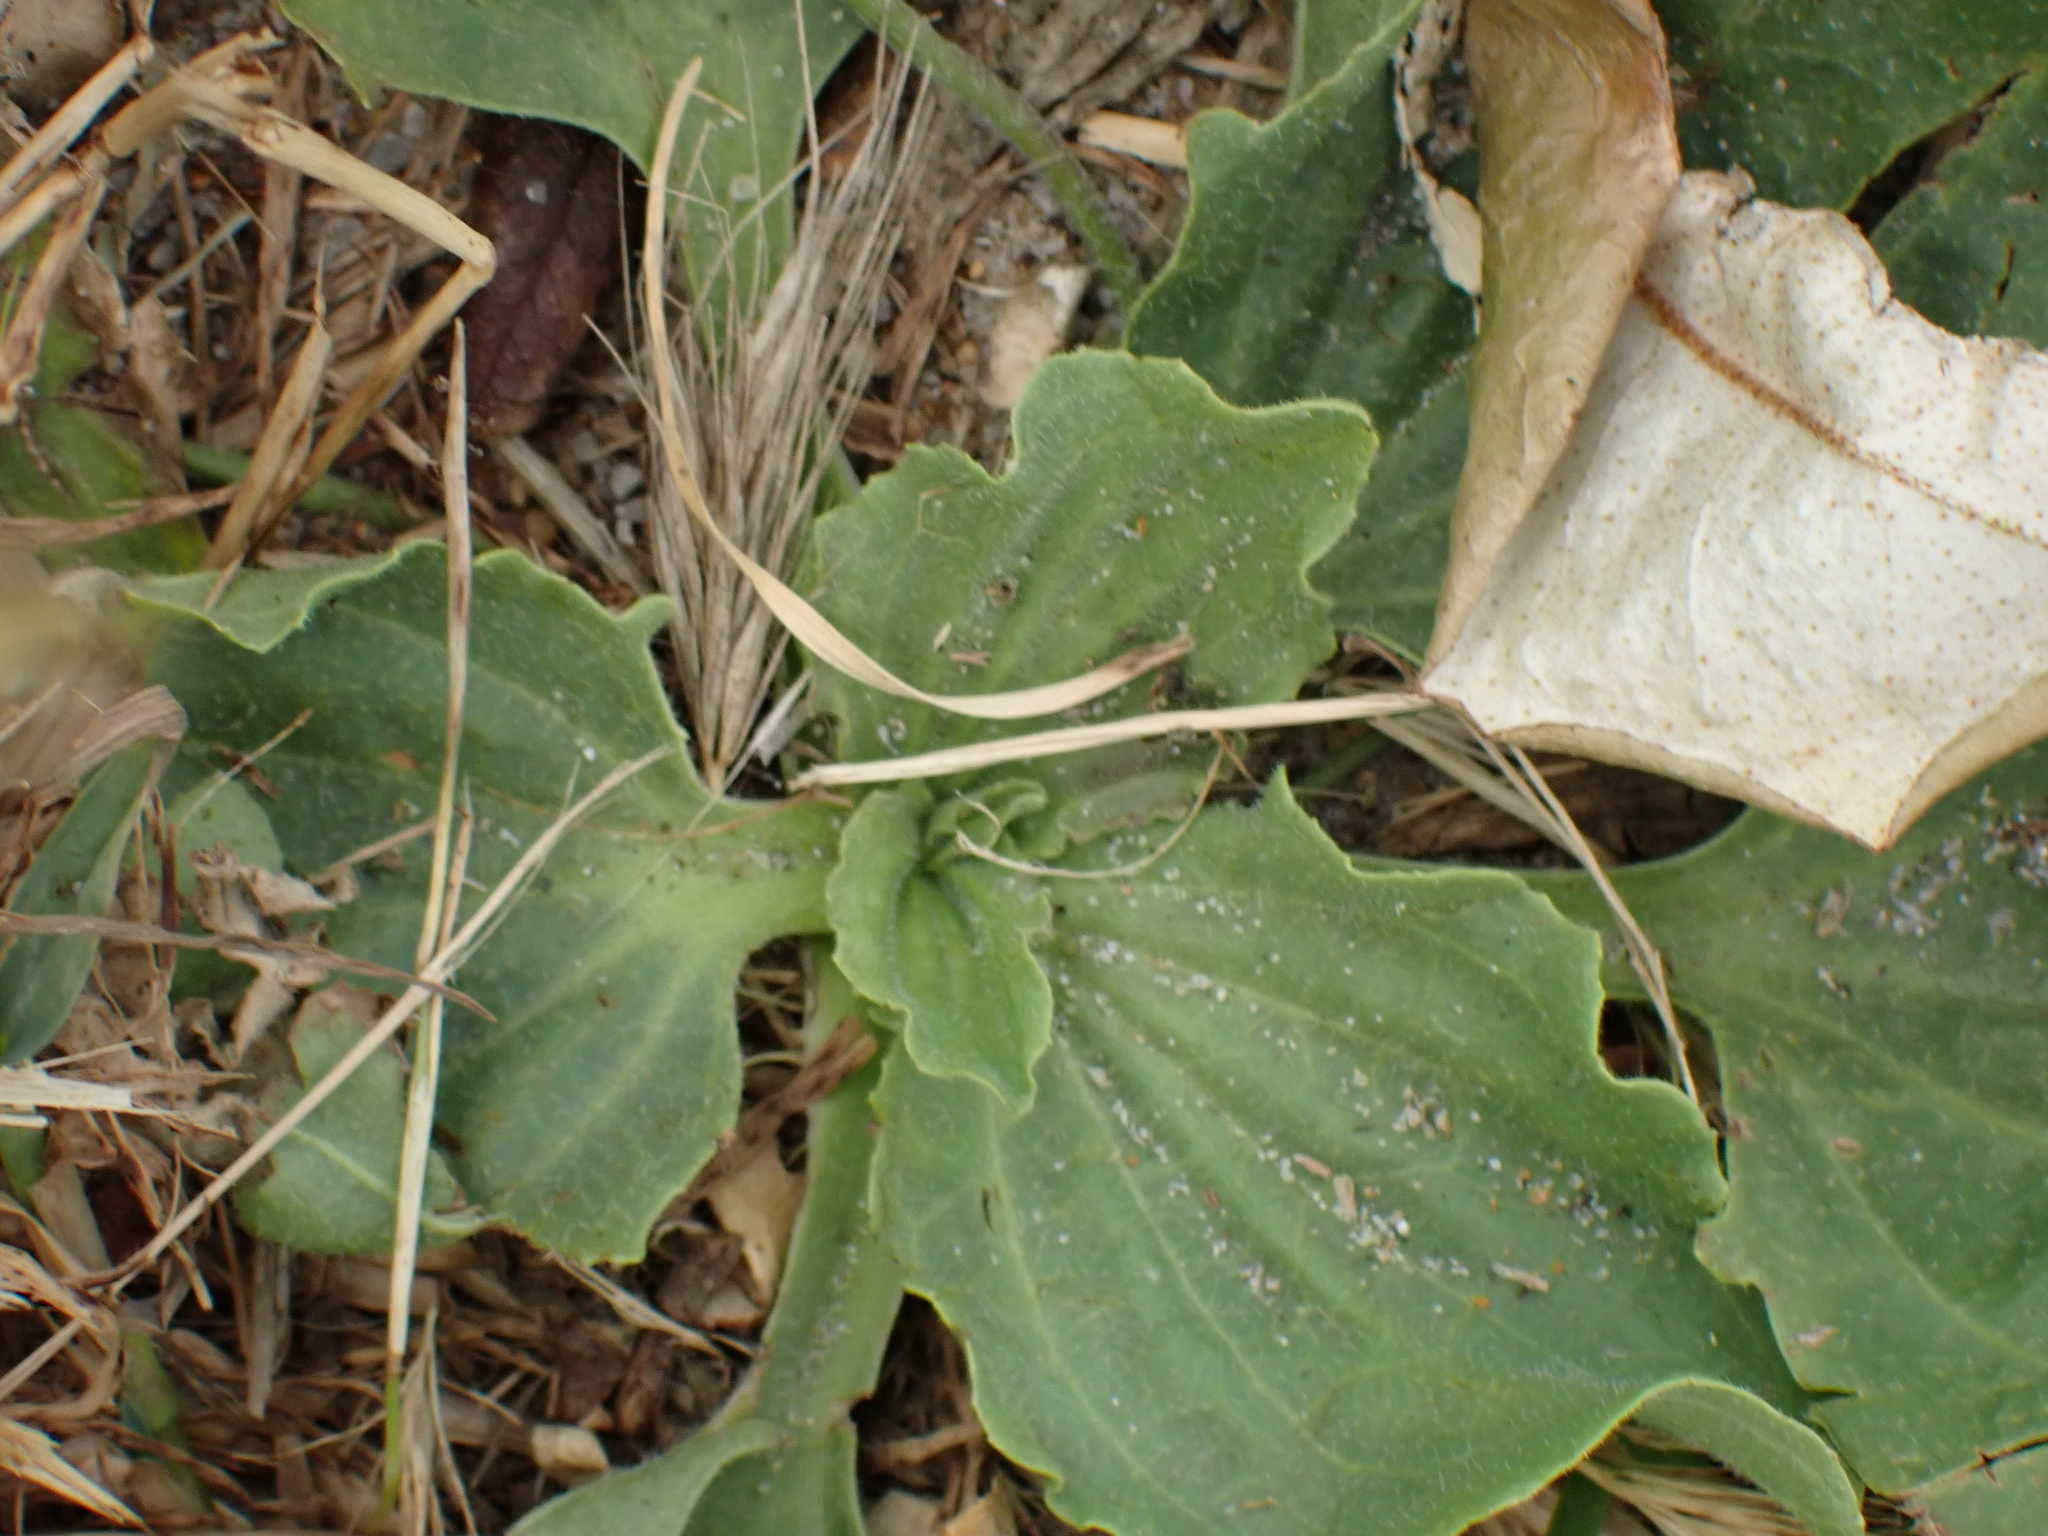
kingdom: Plantae
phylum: Tracheophyta
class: Magnoliopsida
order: Lamiales
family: Plantaginaceae
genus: Plantago
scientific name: Plantago major
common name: Common plantain
